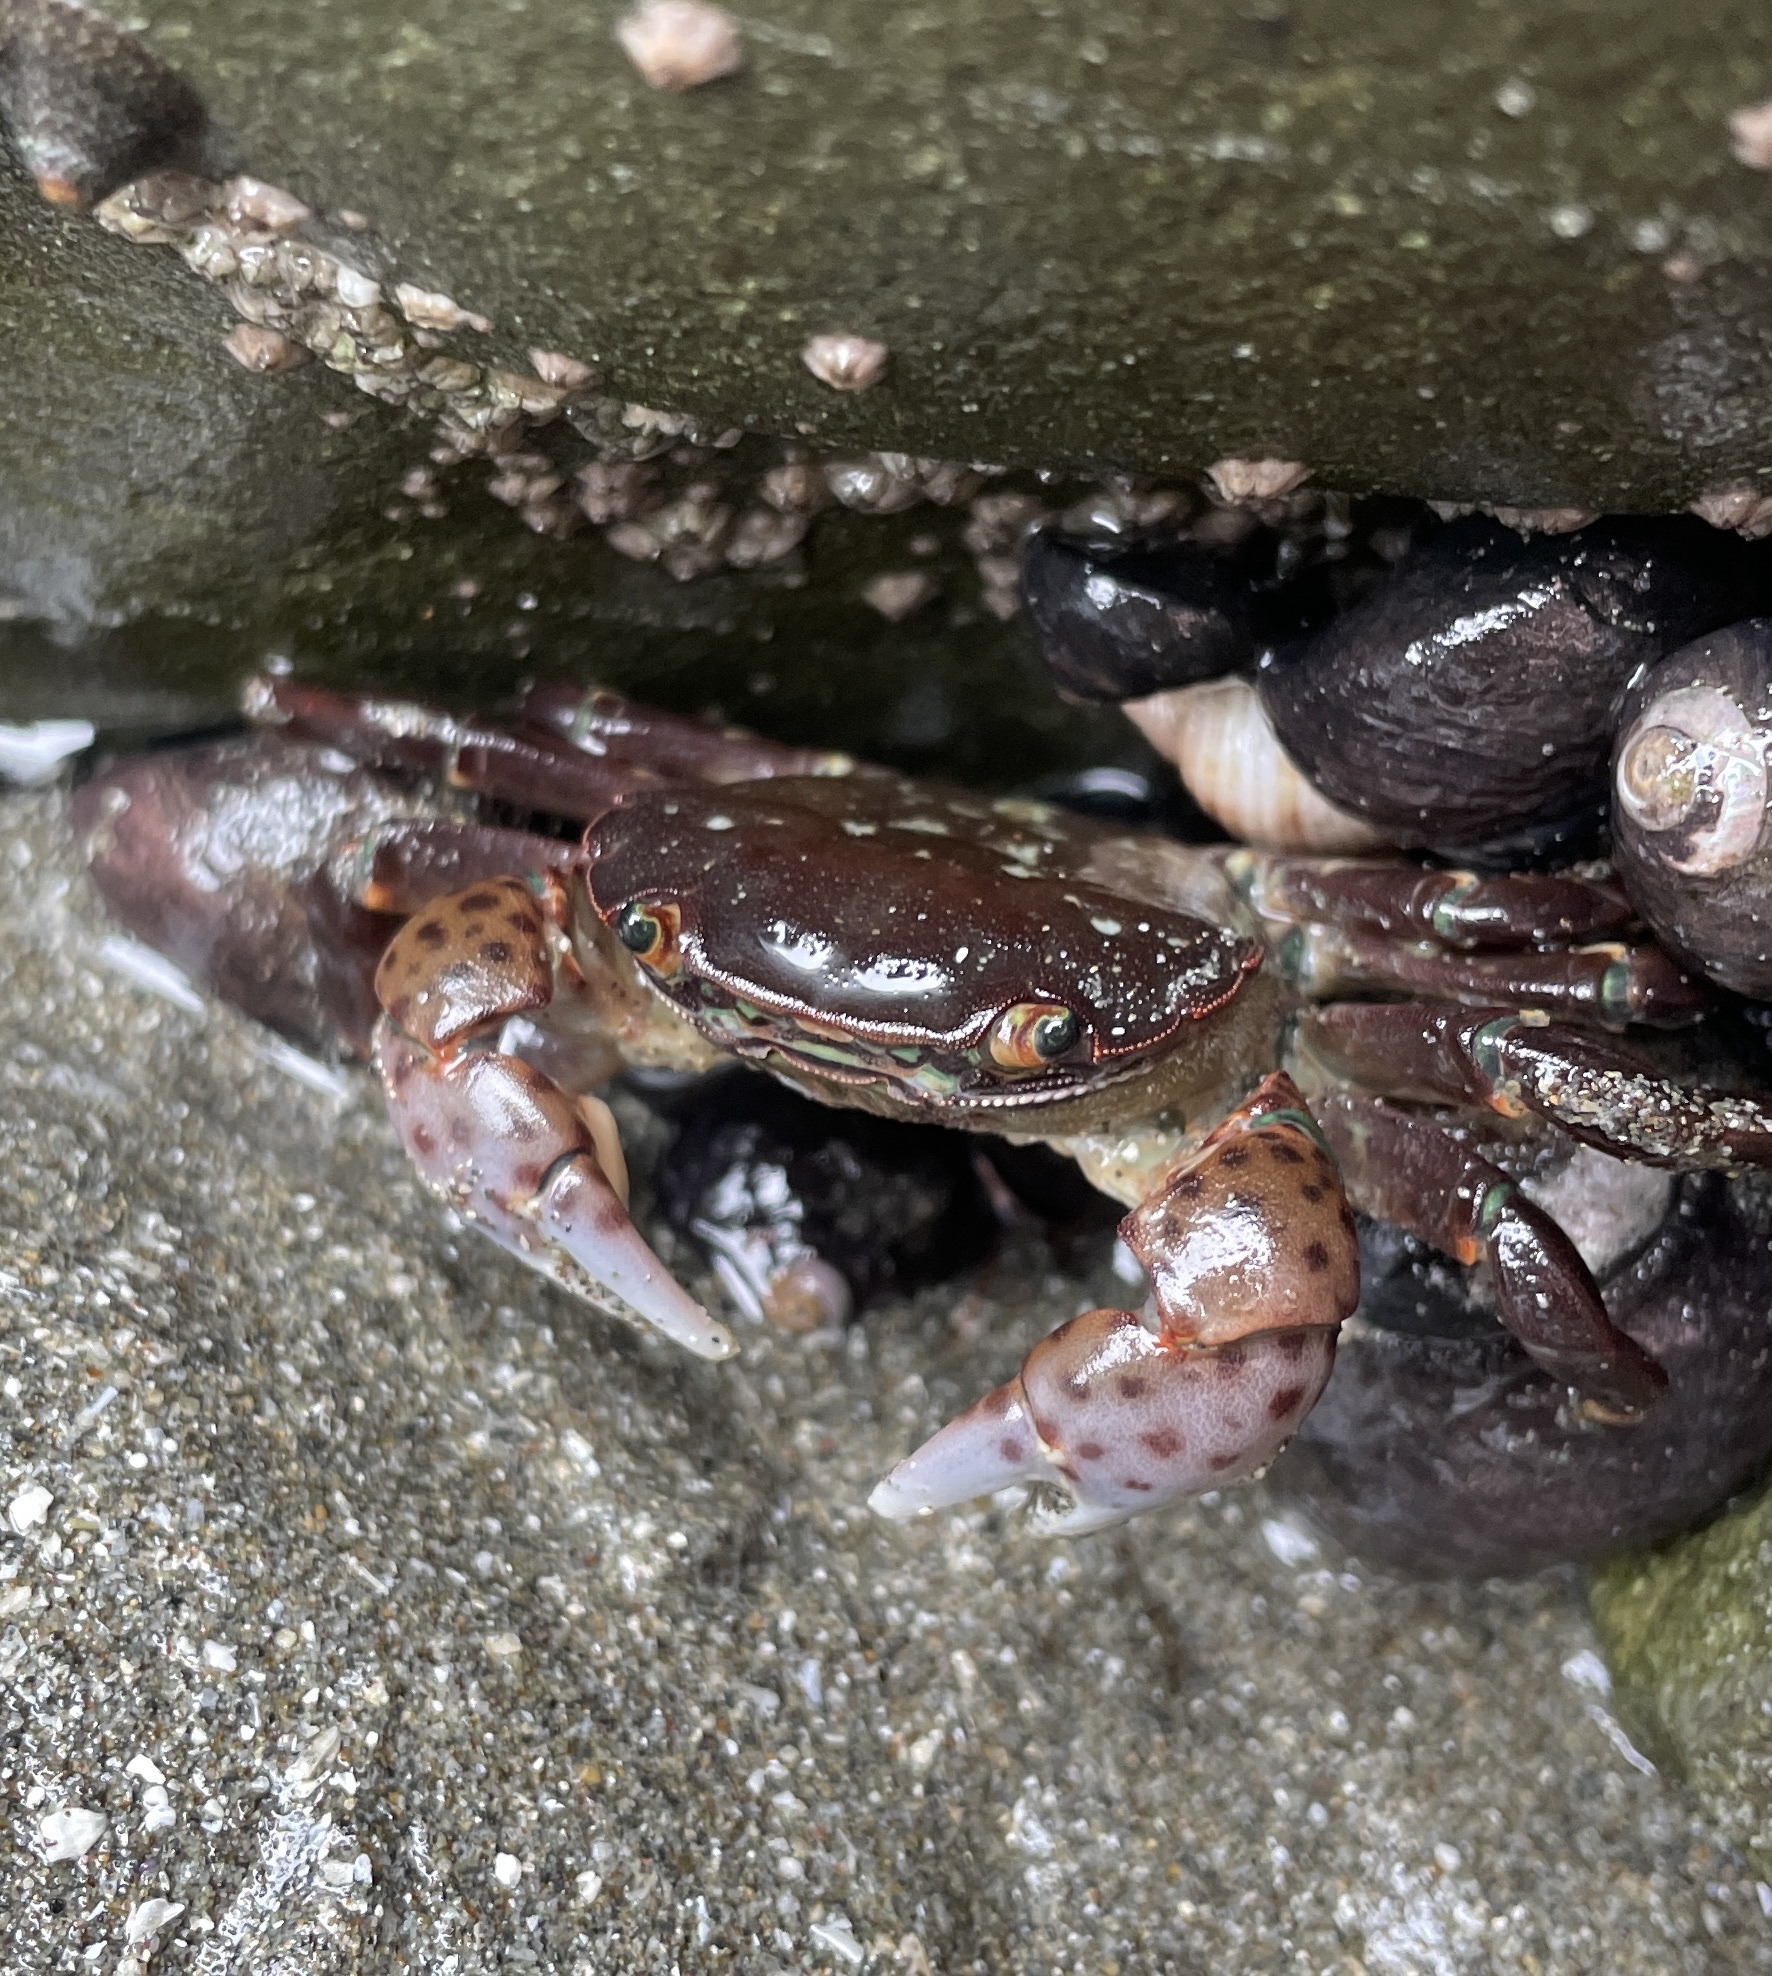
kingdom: Animalia
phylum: Arthropoda
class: Malacostraca
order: Decapoda
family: Varunidae
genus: Hemigrapsus
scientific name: Hemigrapsus nudus
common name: Purple shore crab
